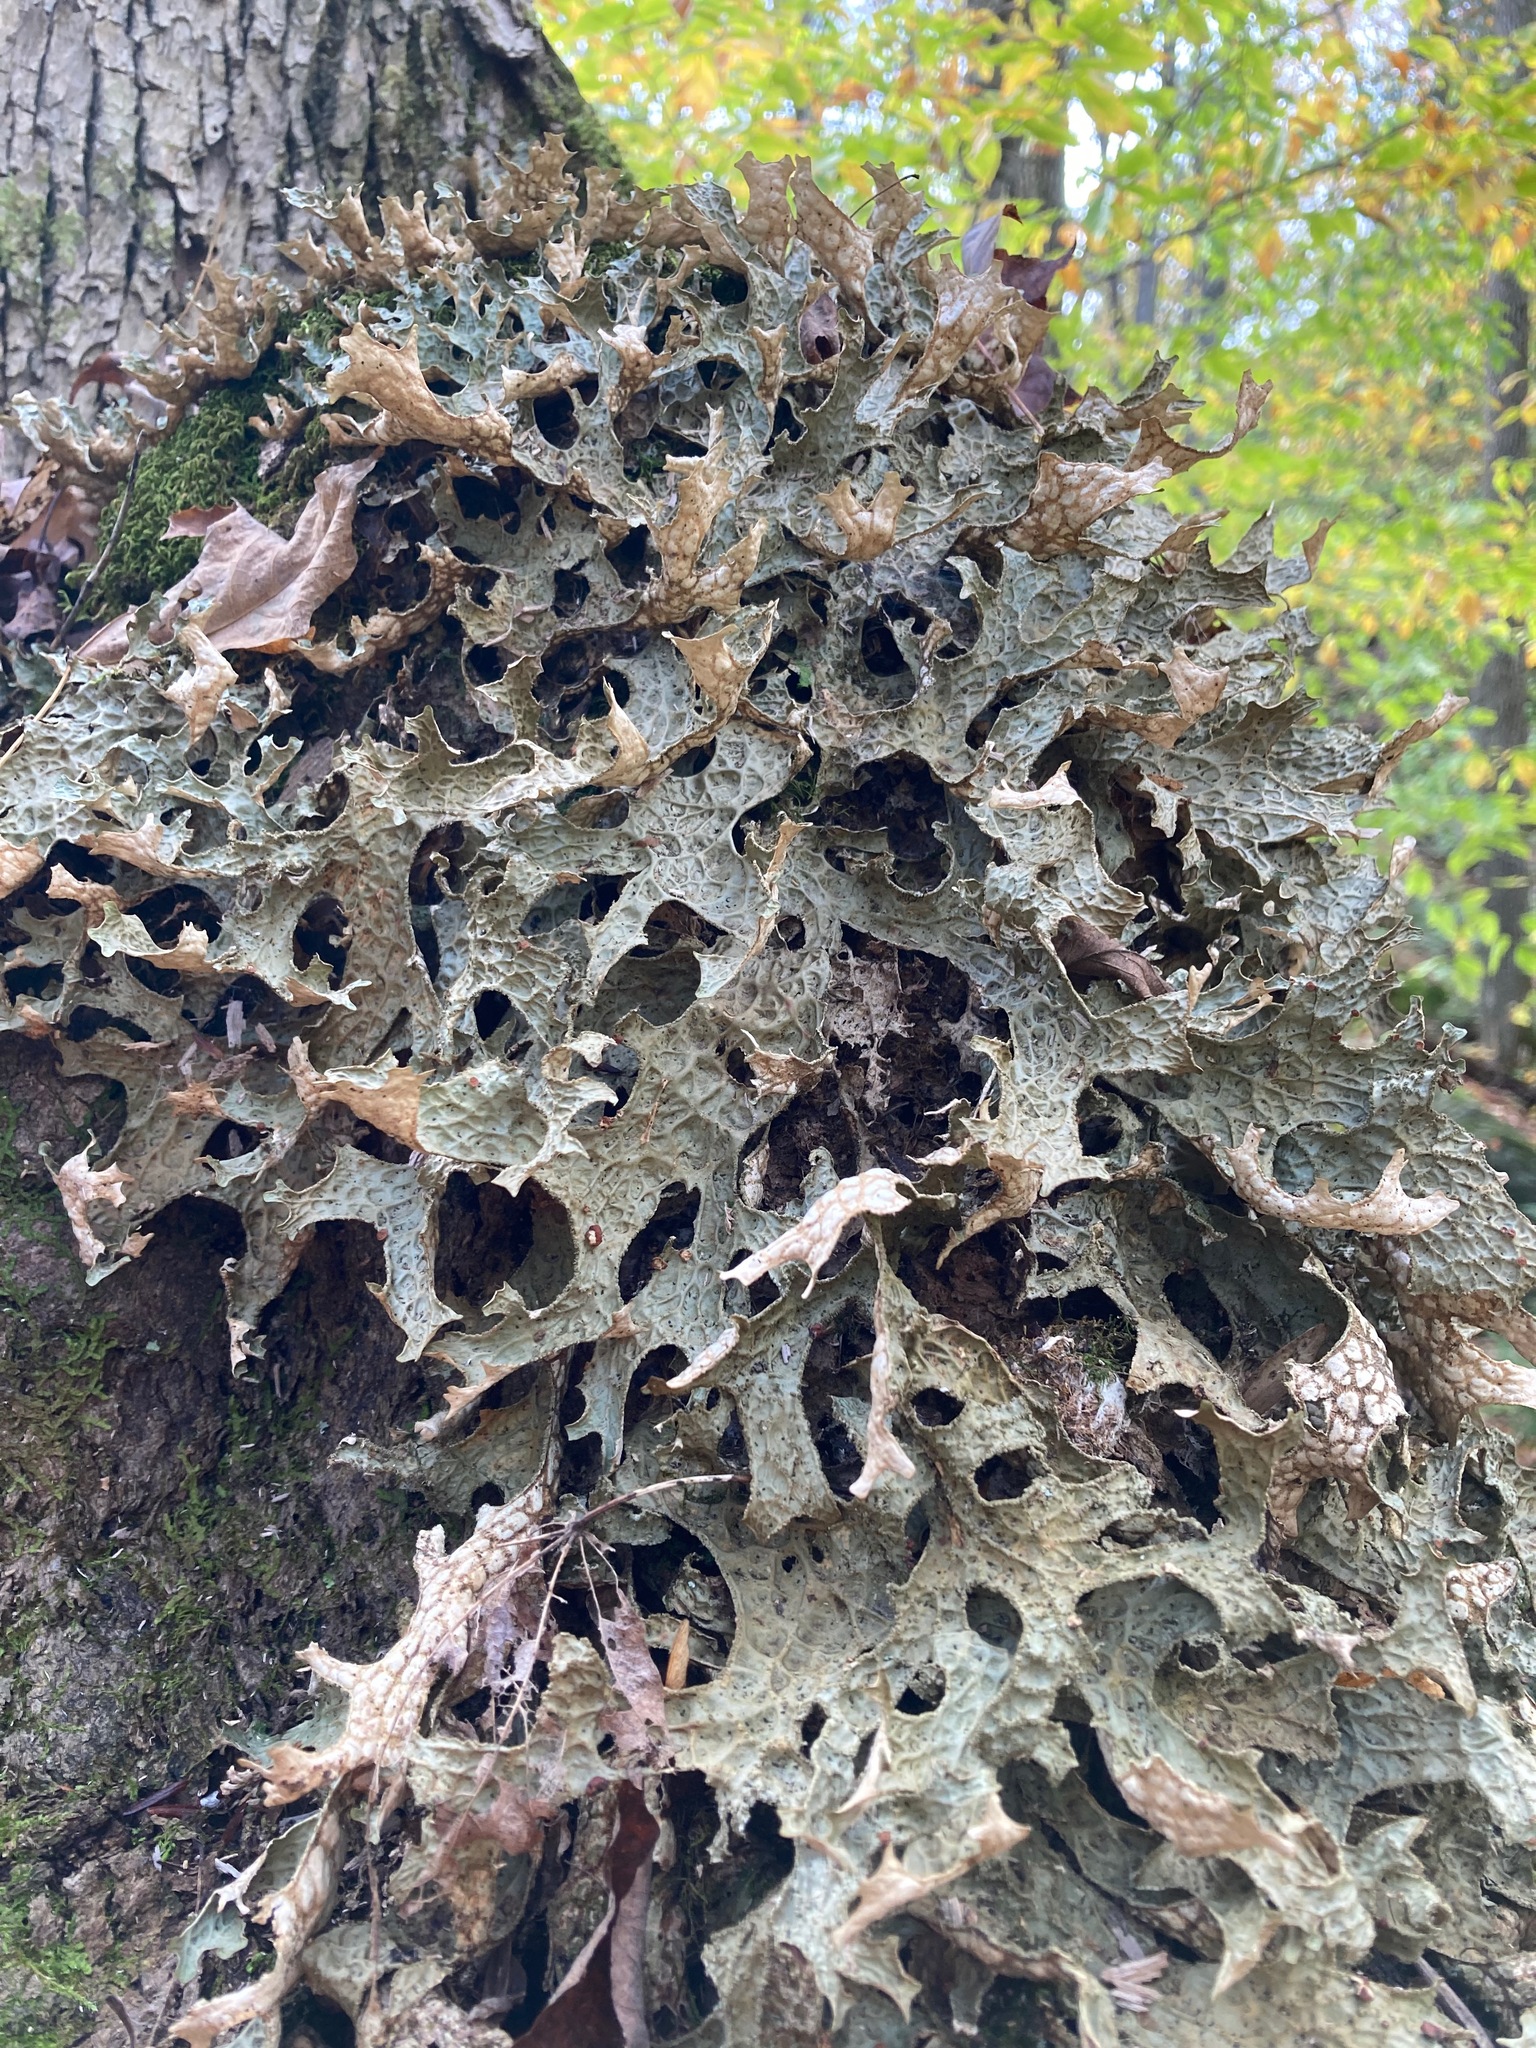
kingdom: Fungi
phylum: Ascomycota
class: Lecanoromycetes
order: Peltigerales
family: Lobariaceae
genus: Lobaria
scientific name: Lobaria pulmonaria
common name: Lungwort
